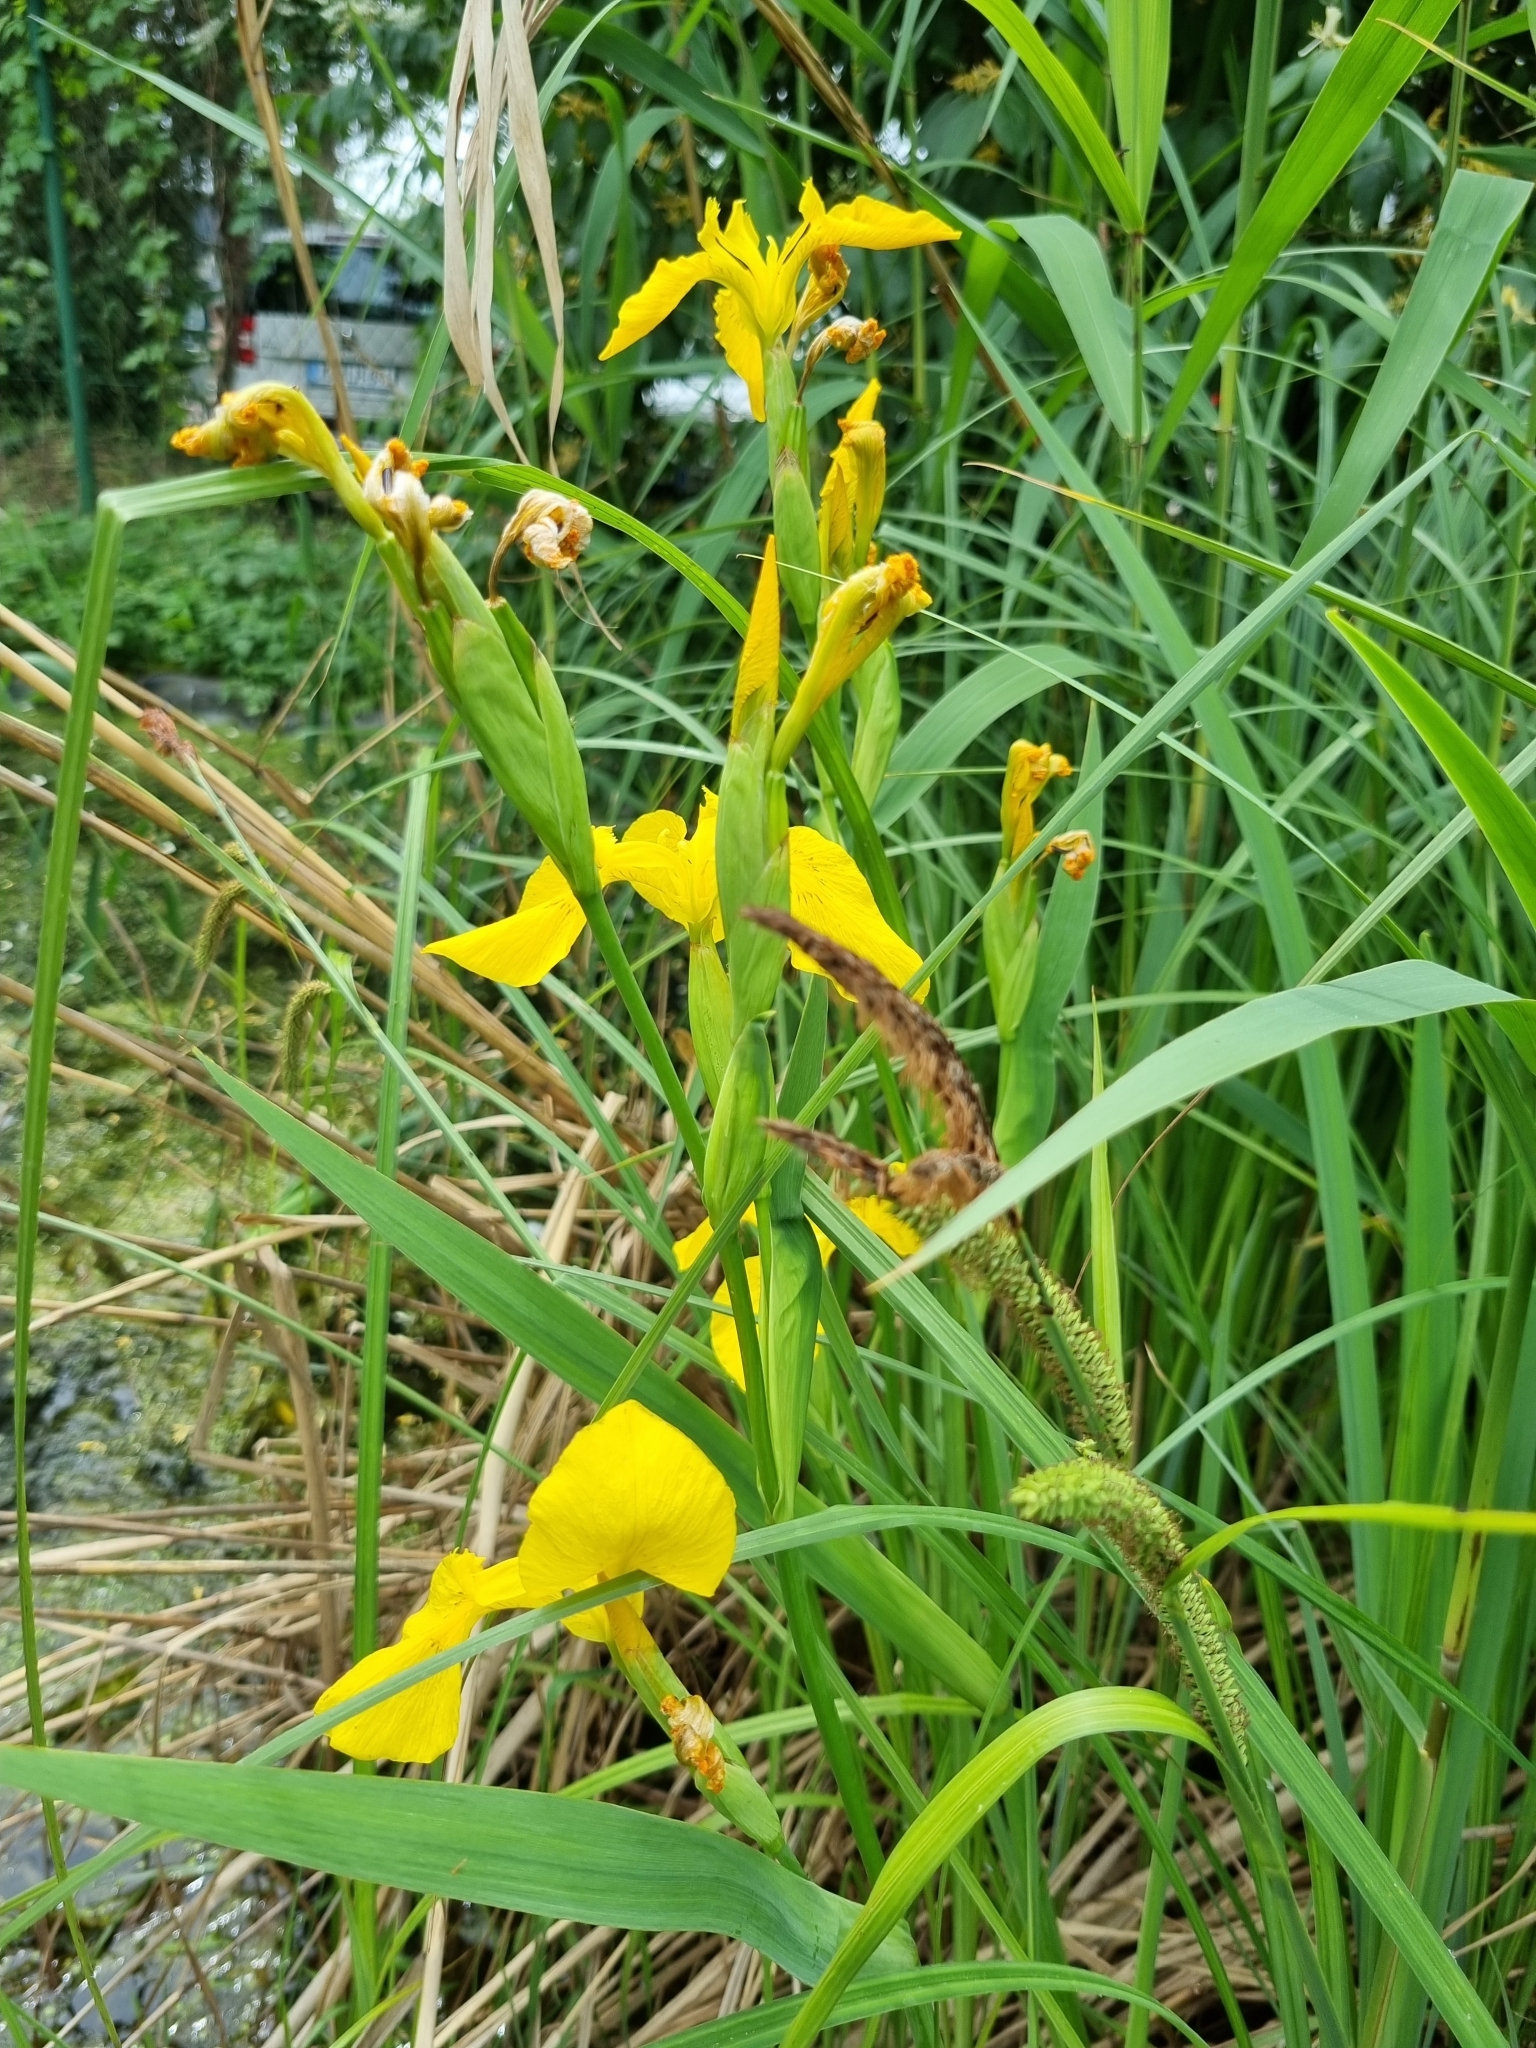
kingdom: Plantae
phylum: Tracheophyta
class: Liliopsida
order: Asparagales
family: Iridaceae
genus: Iris
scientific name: Iris pseudacorus
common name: Yellow flag
